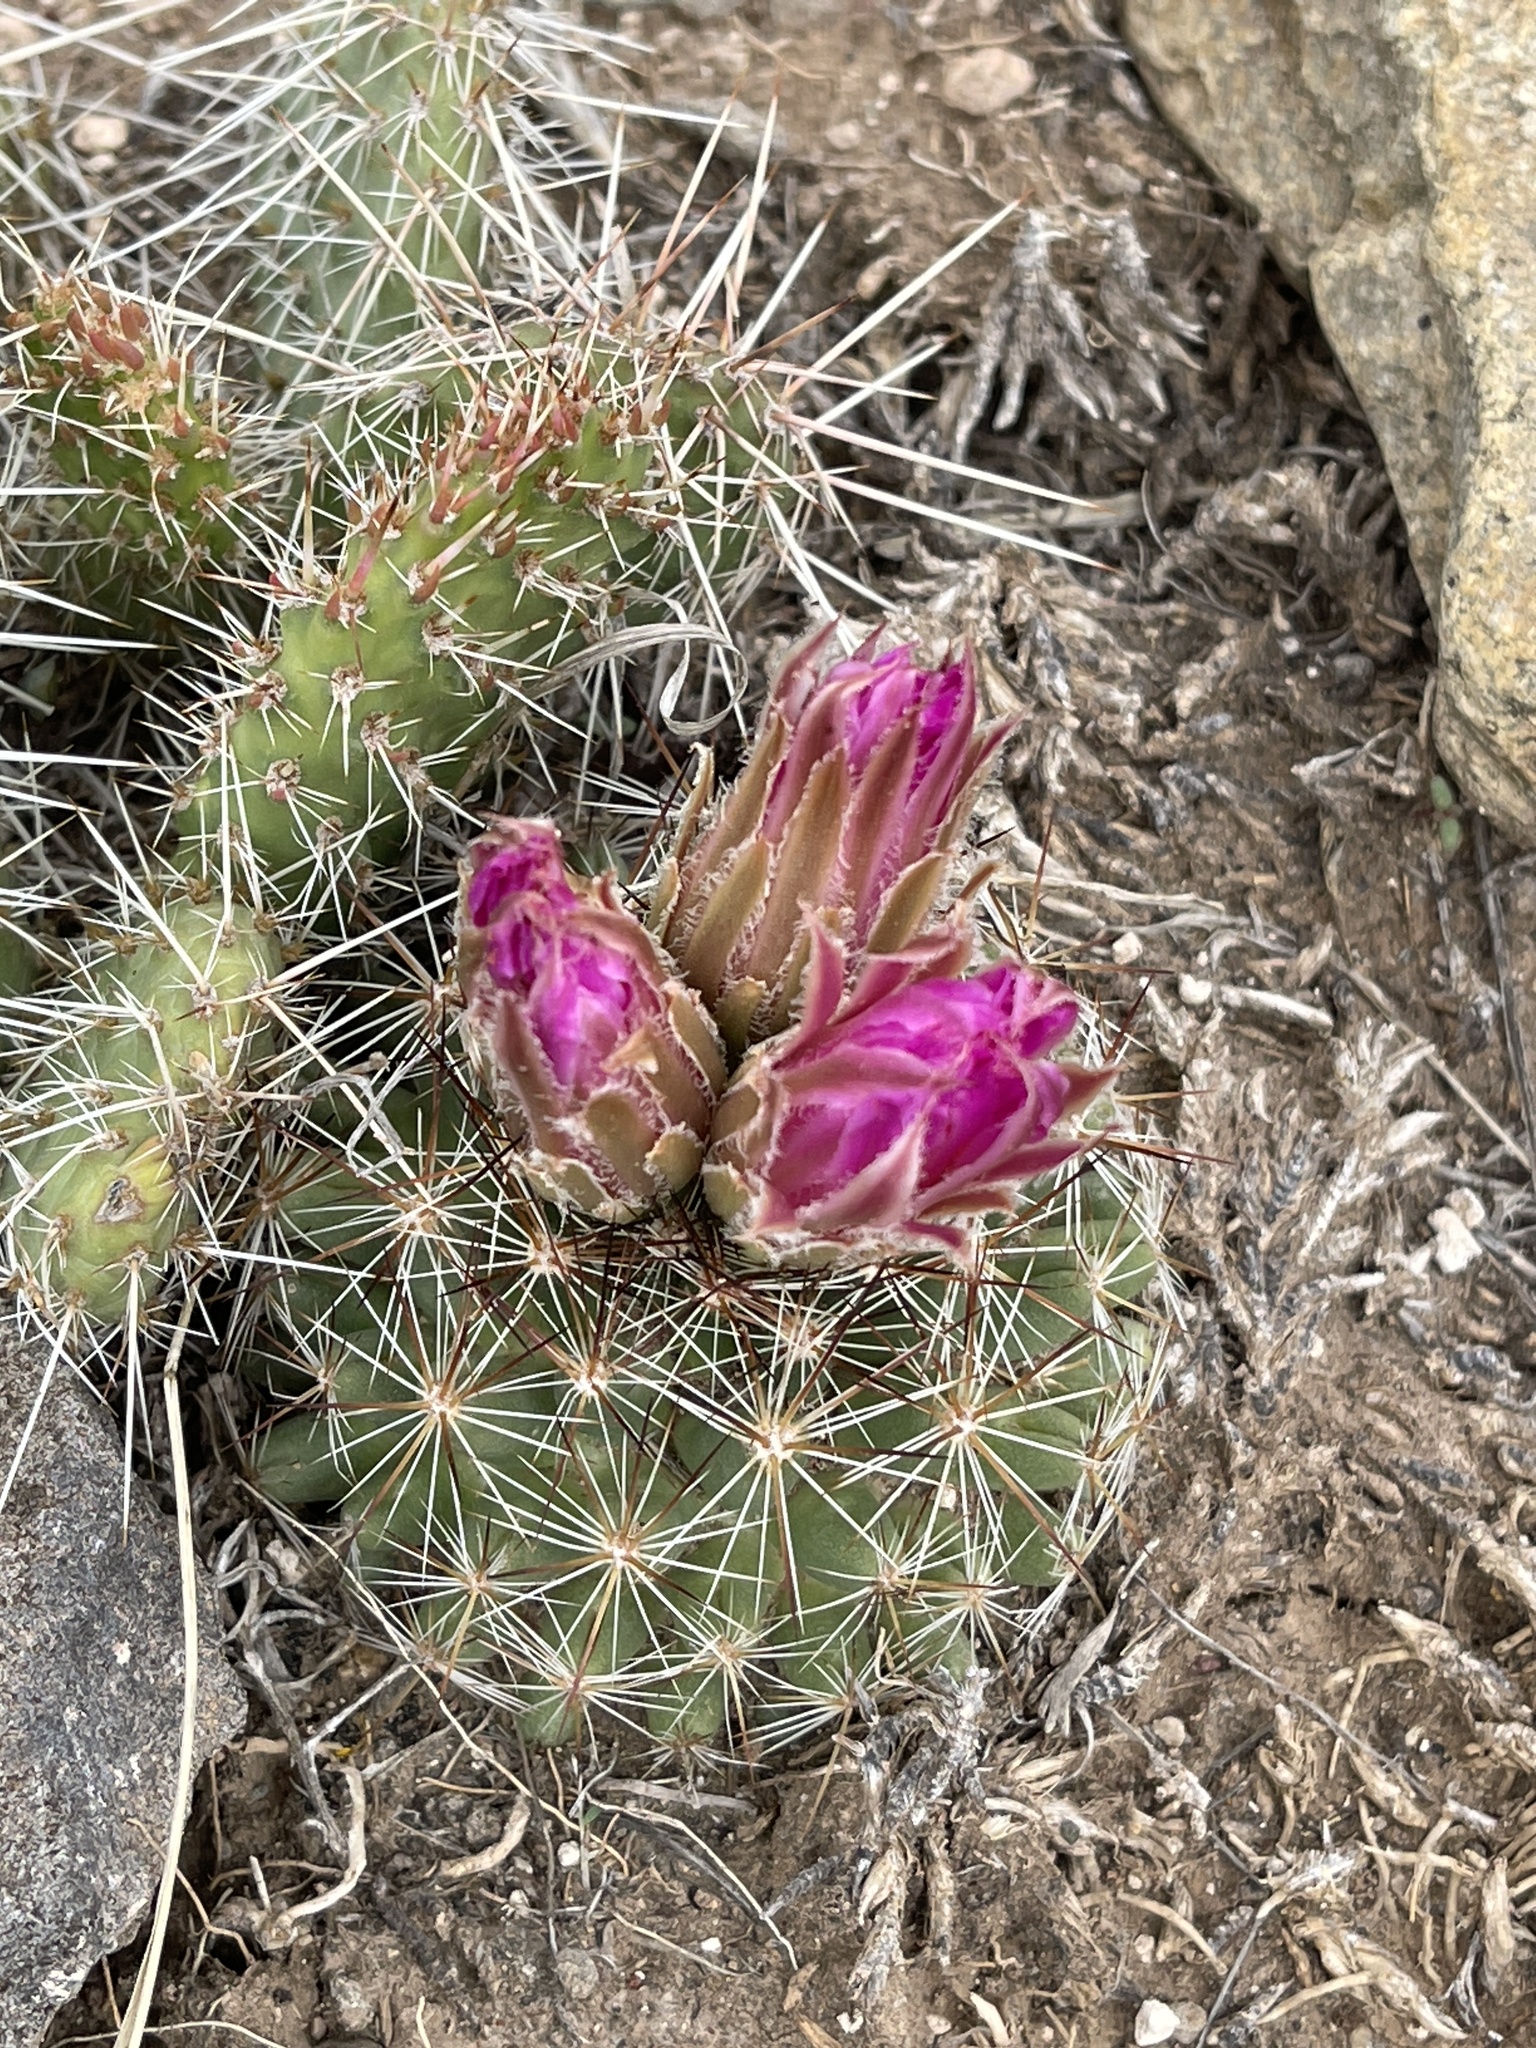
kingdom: Plantae
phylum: Tracheophyta
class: Magnoliopsida
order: Caryophyllales
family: Cactaceae
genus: Pelecyphora
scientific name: Pelecyphora vivipara
